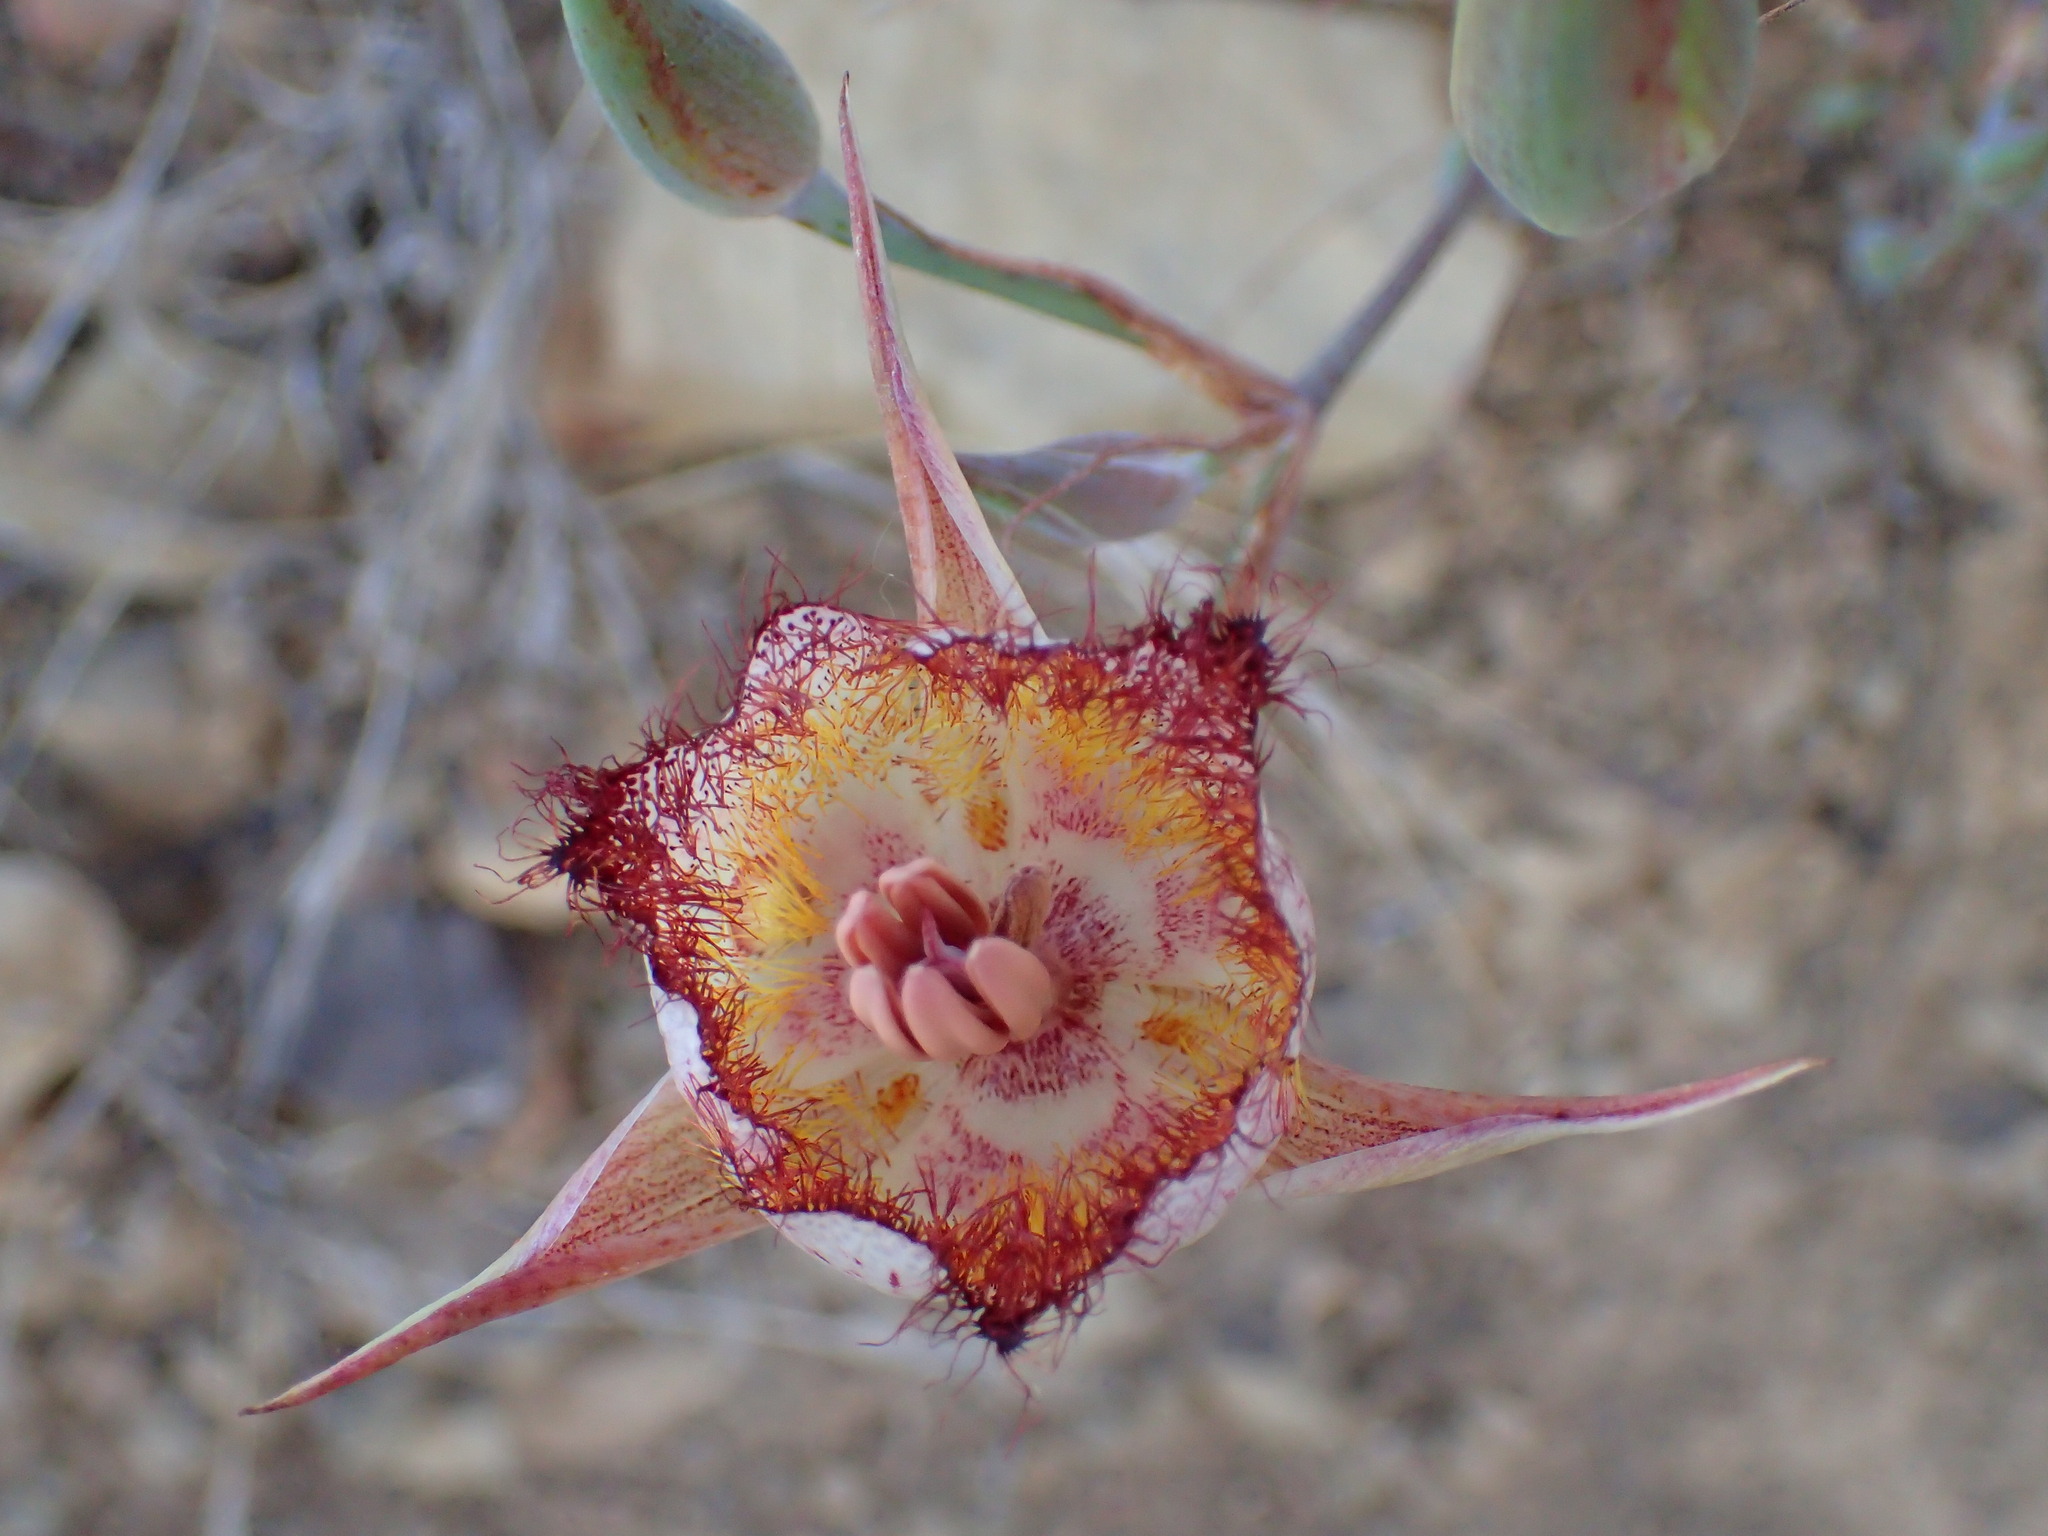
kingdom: Plantae
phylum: Tracheophyta
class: Liliopsida
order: Liliales
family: Liliaceae
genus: Calochortus
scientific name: Calochortus fimbriatus
